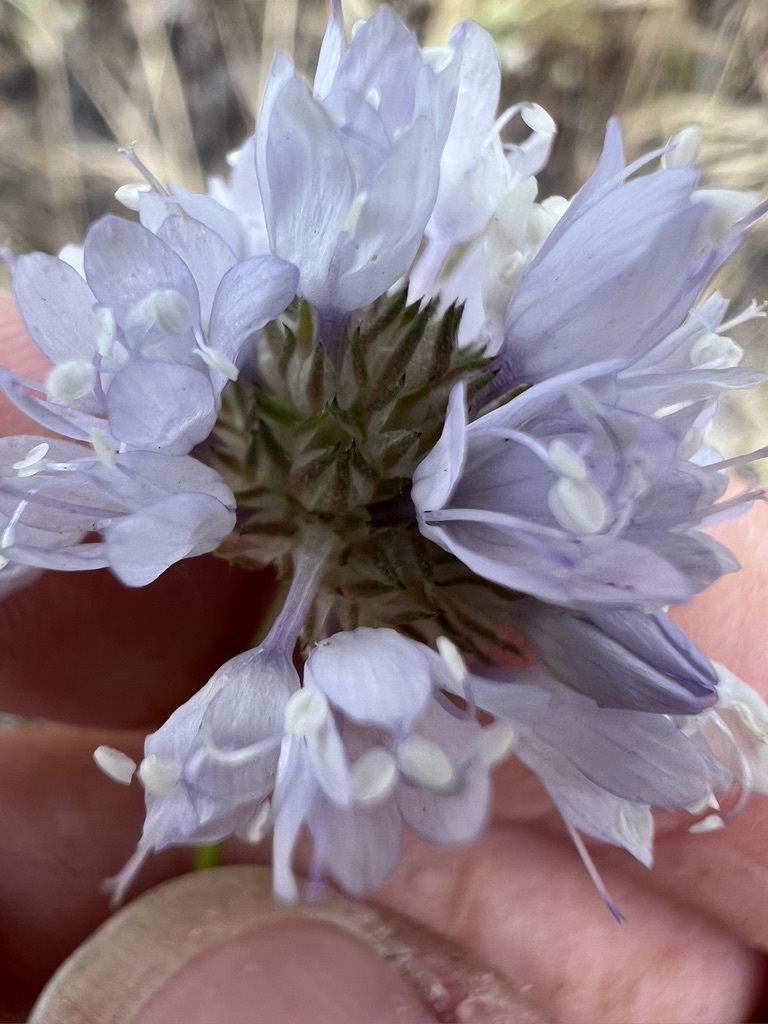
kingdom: Plantae
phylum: Tracheophyta
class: Magnoliopsida
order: Ericales
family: Polemoniaceae
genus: Gilia
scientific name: Gilia capitata
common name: Bluehead gilia
